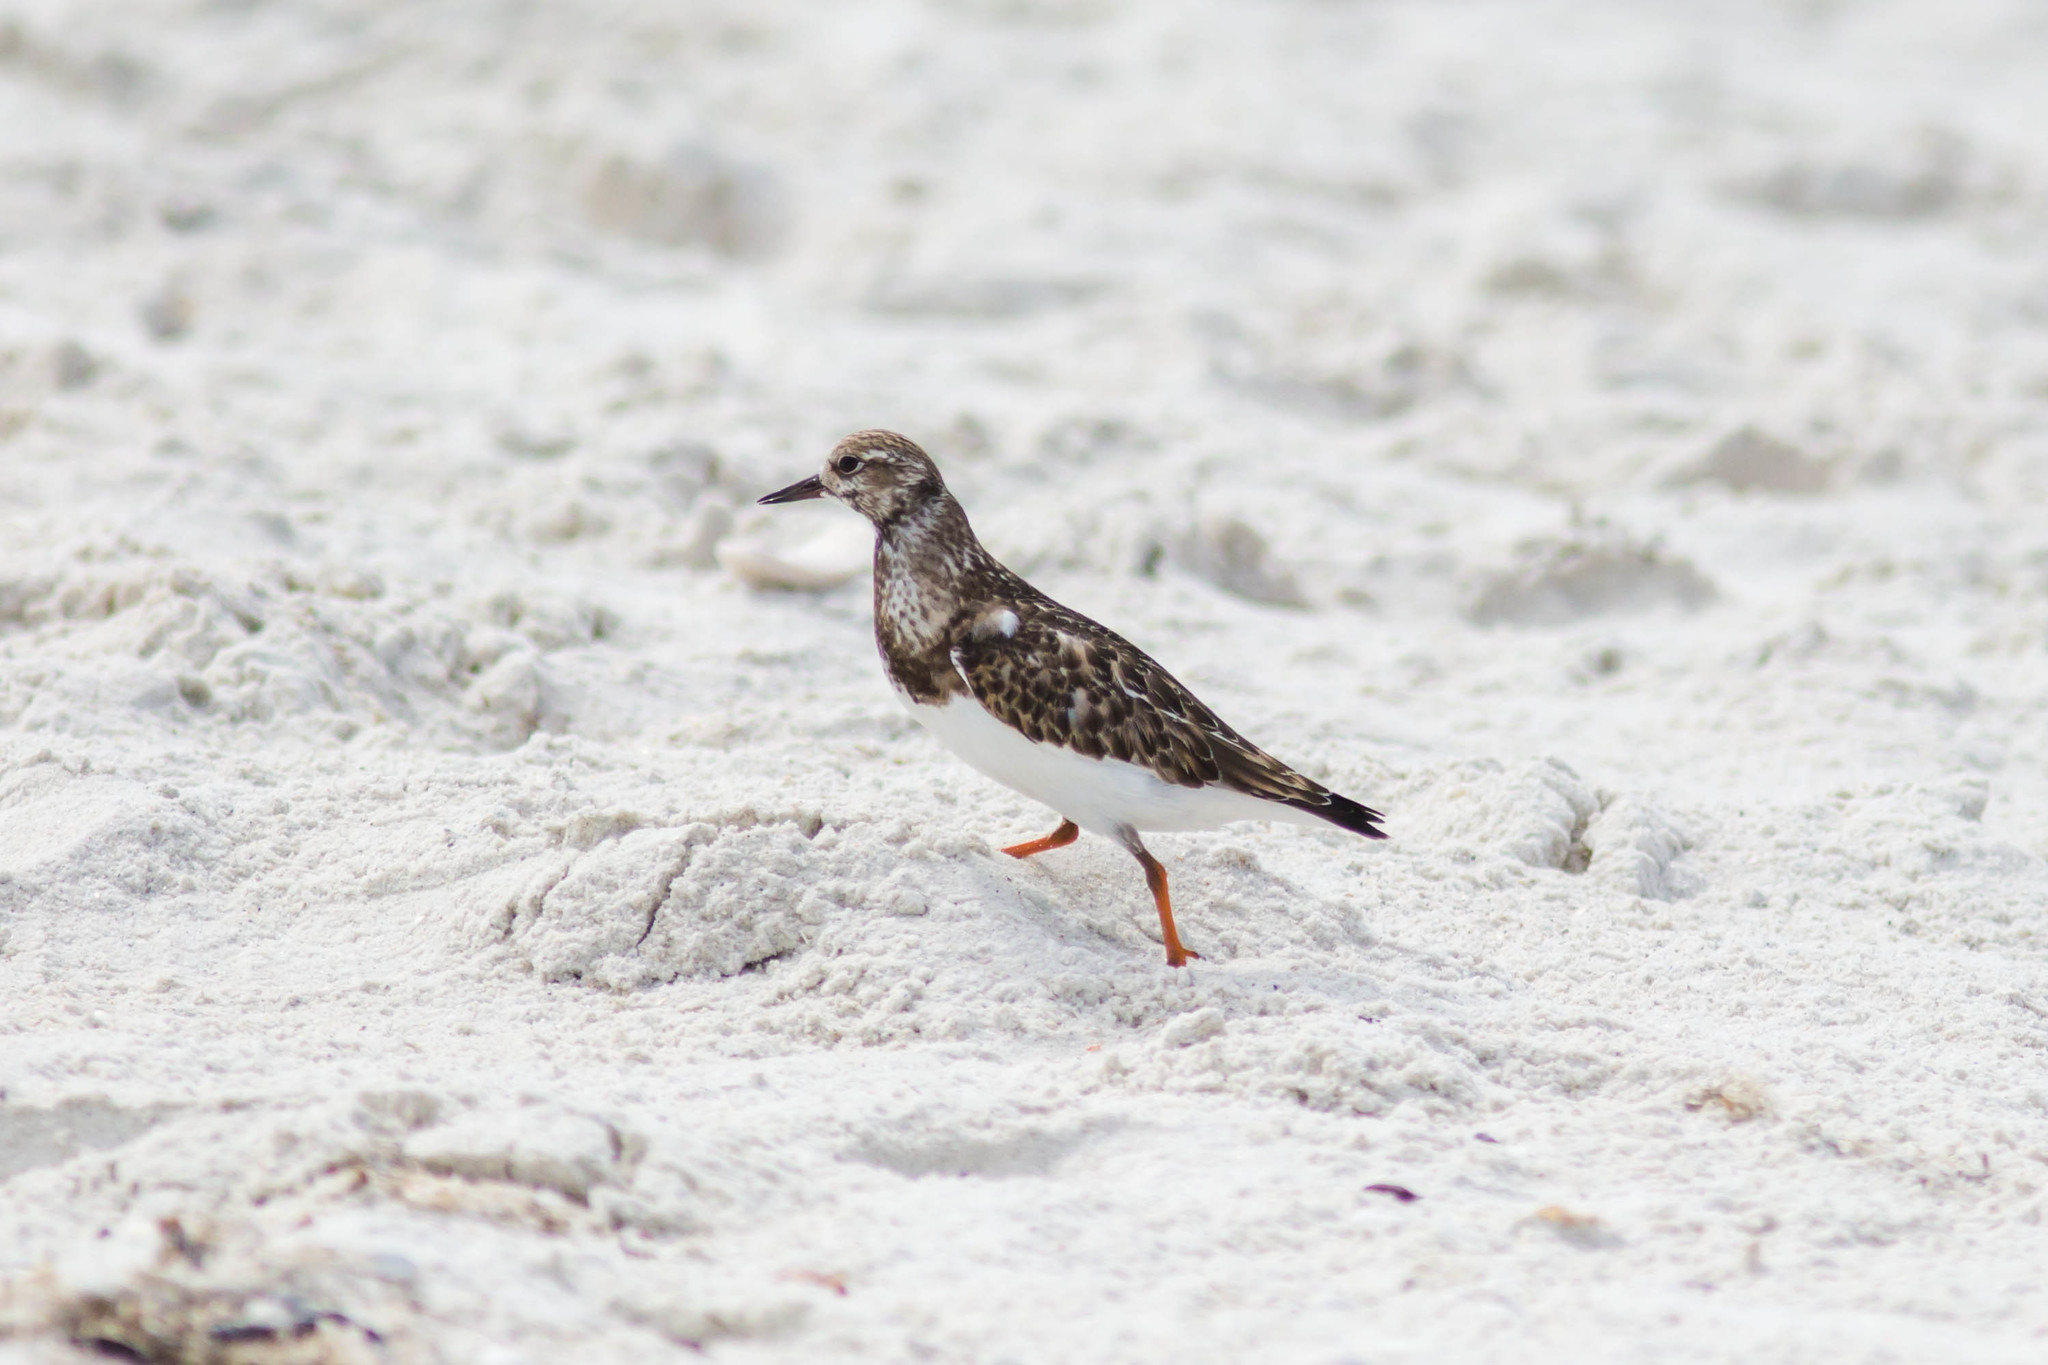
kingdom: Animalia
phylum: Chordata
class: Aves
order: Charadriiformes
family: Scolopacidae
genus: Arenaria
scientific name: Arenaria interpres
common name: Ruddy turnstone
